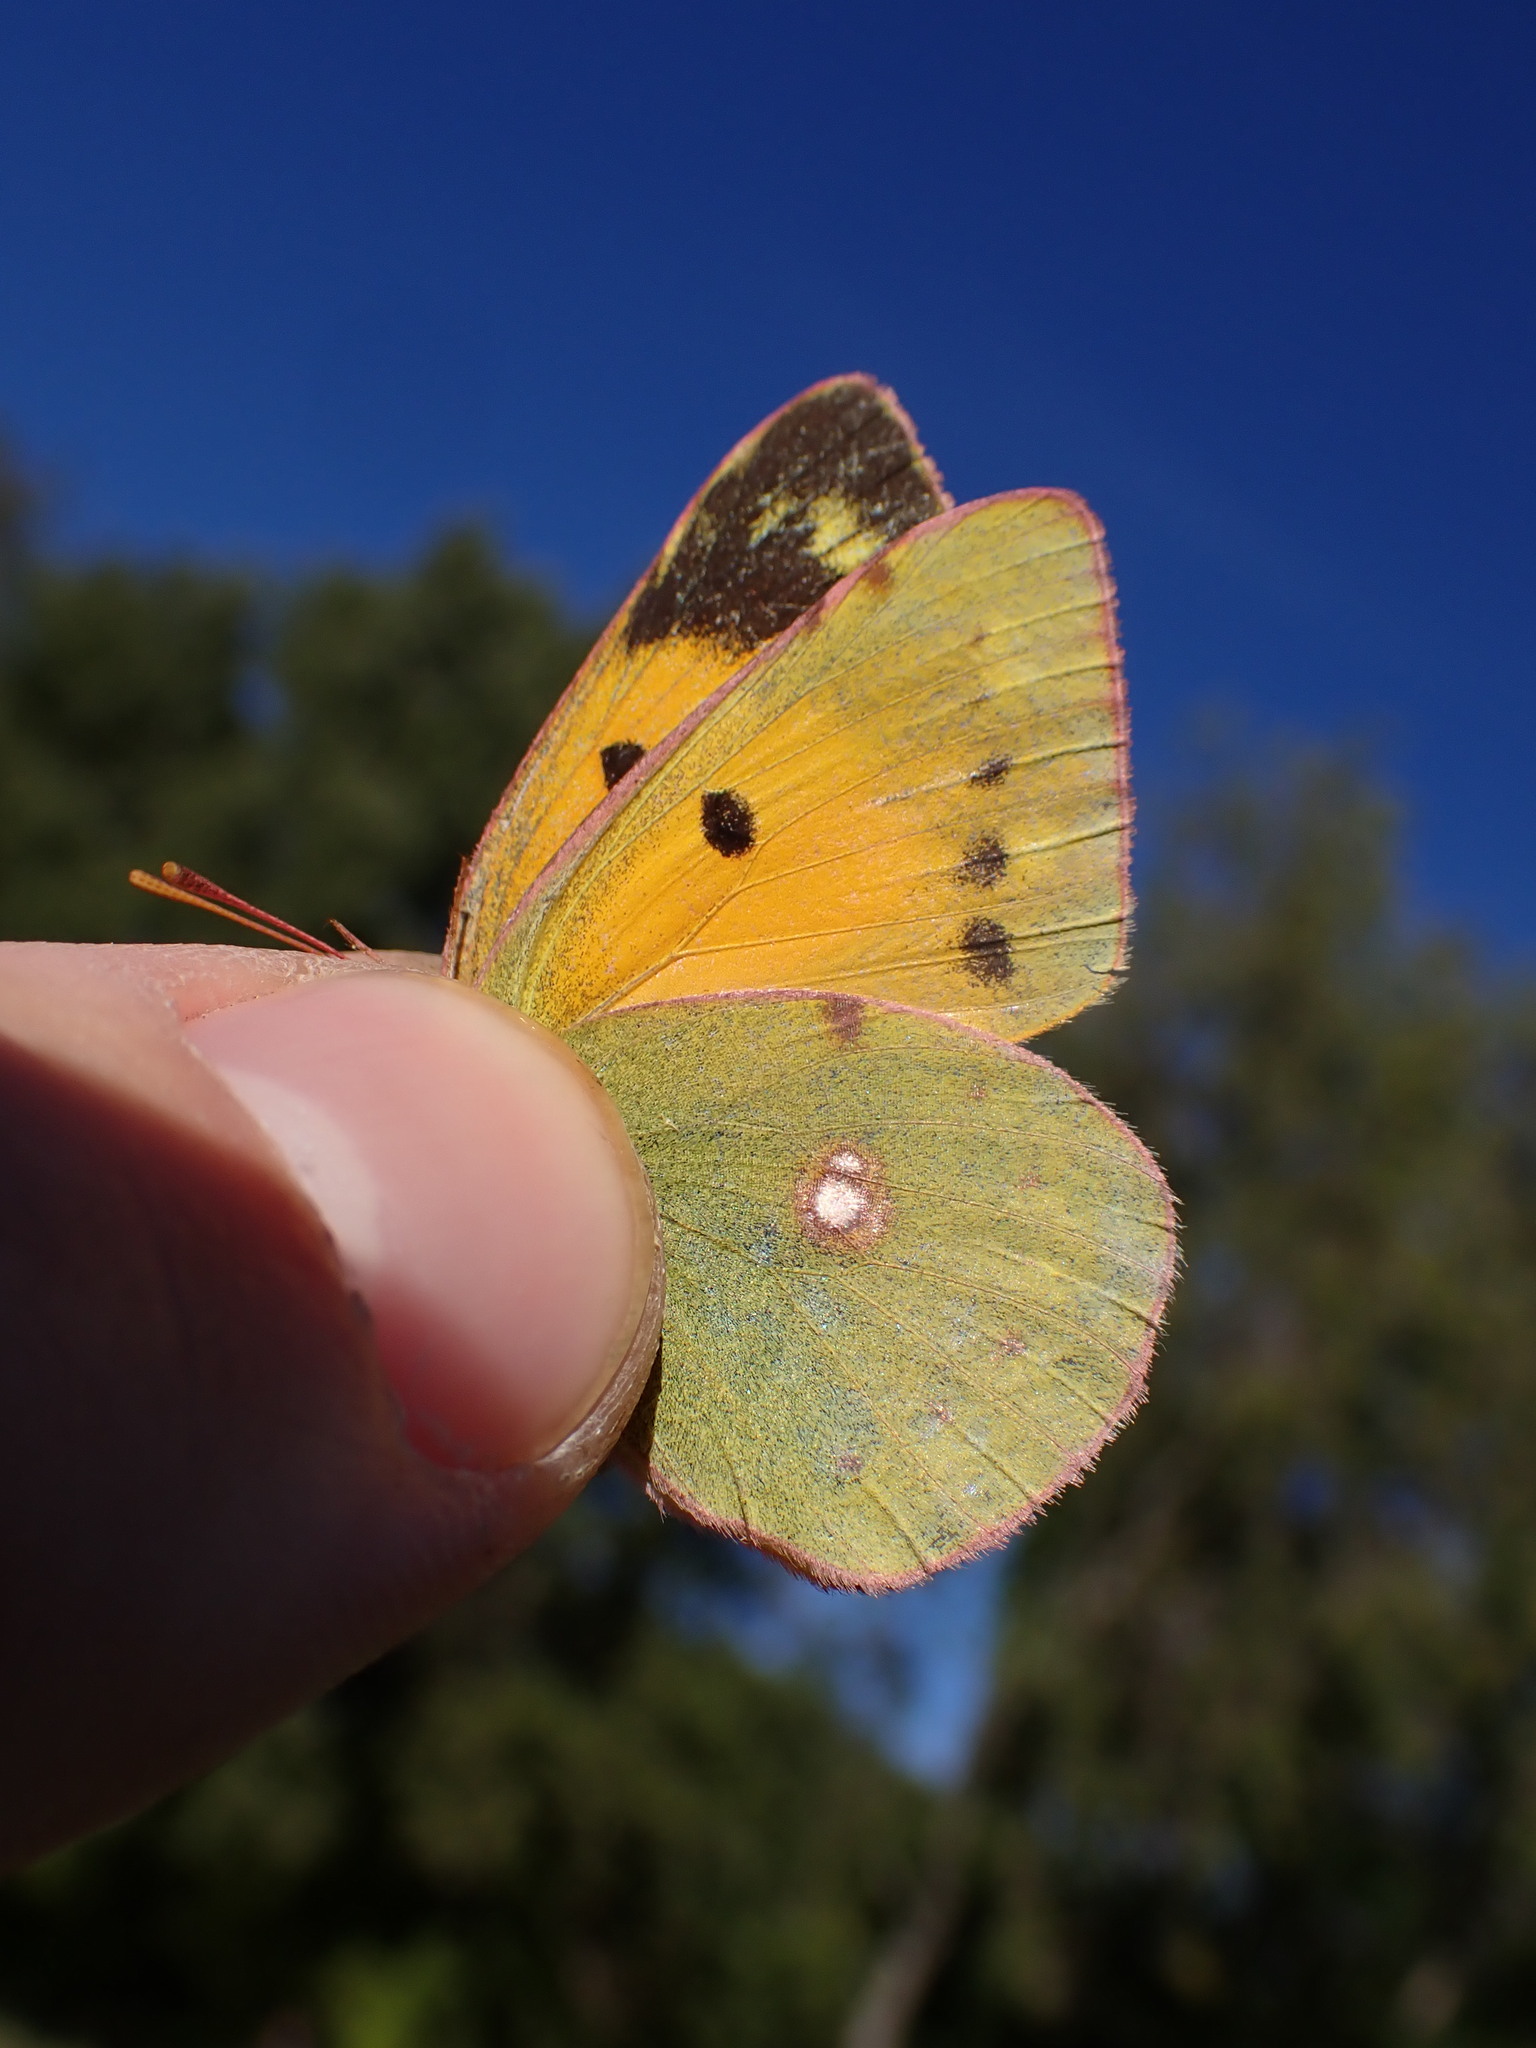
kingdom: Animalia
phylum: Arthropoda
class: Insecta
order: Lepidoptera
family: Pieridae
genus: Colias
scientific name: Colias croceus
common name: Clouded yellow
